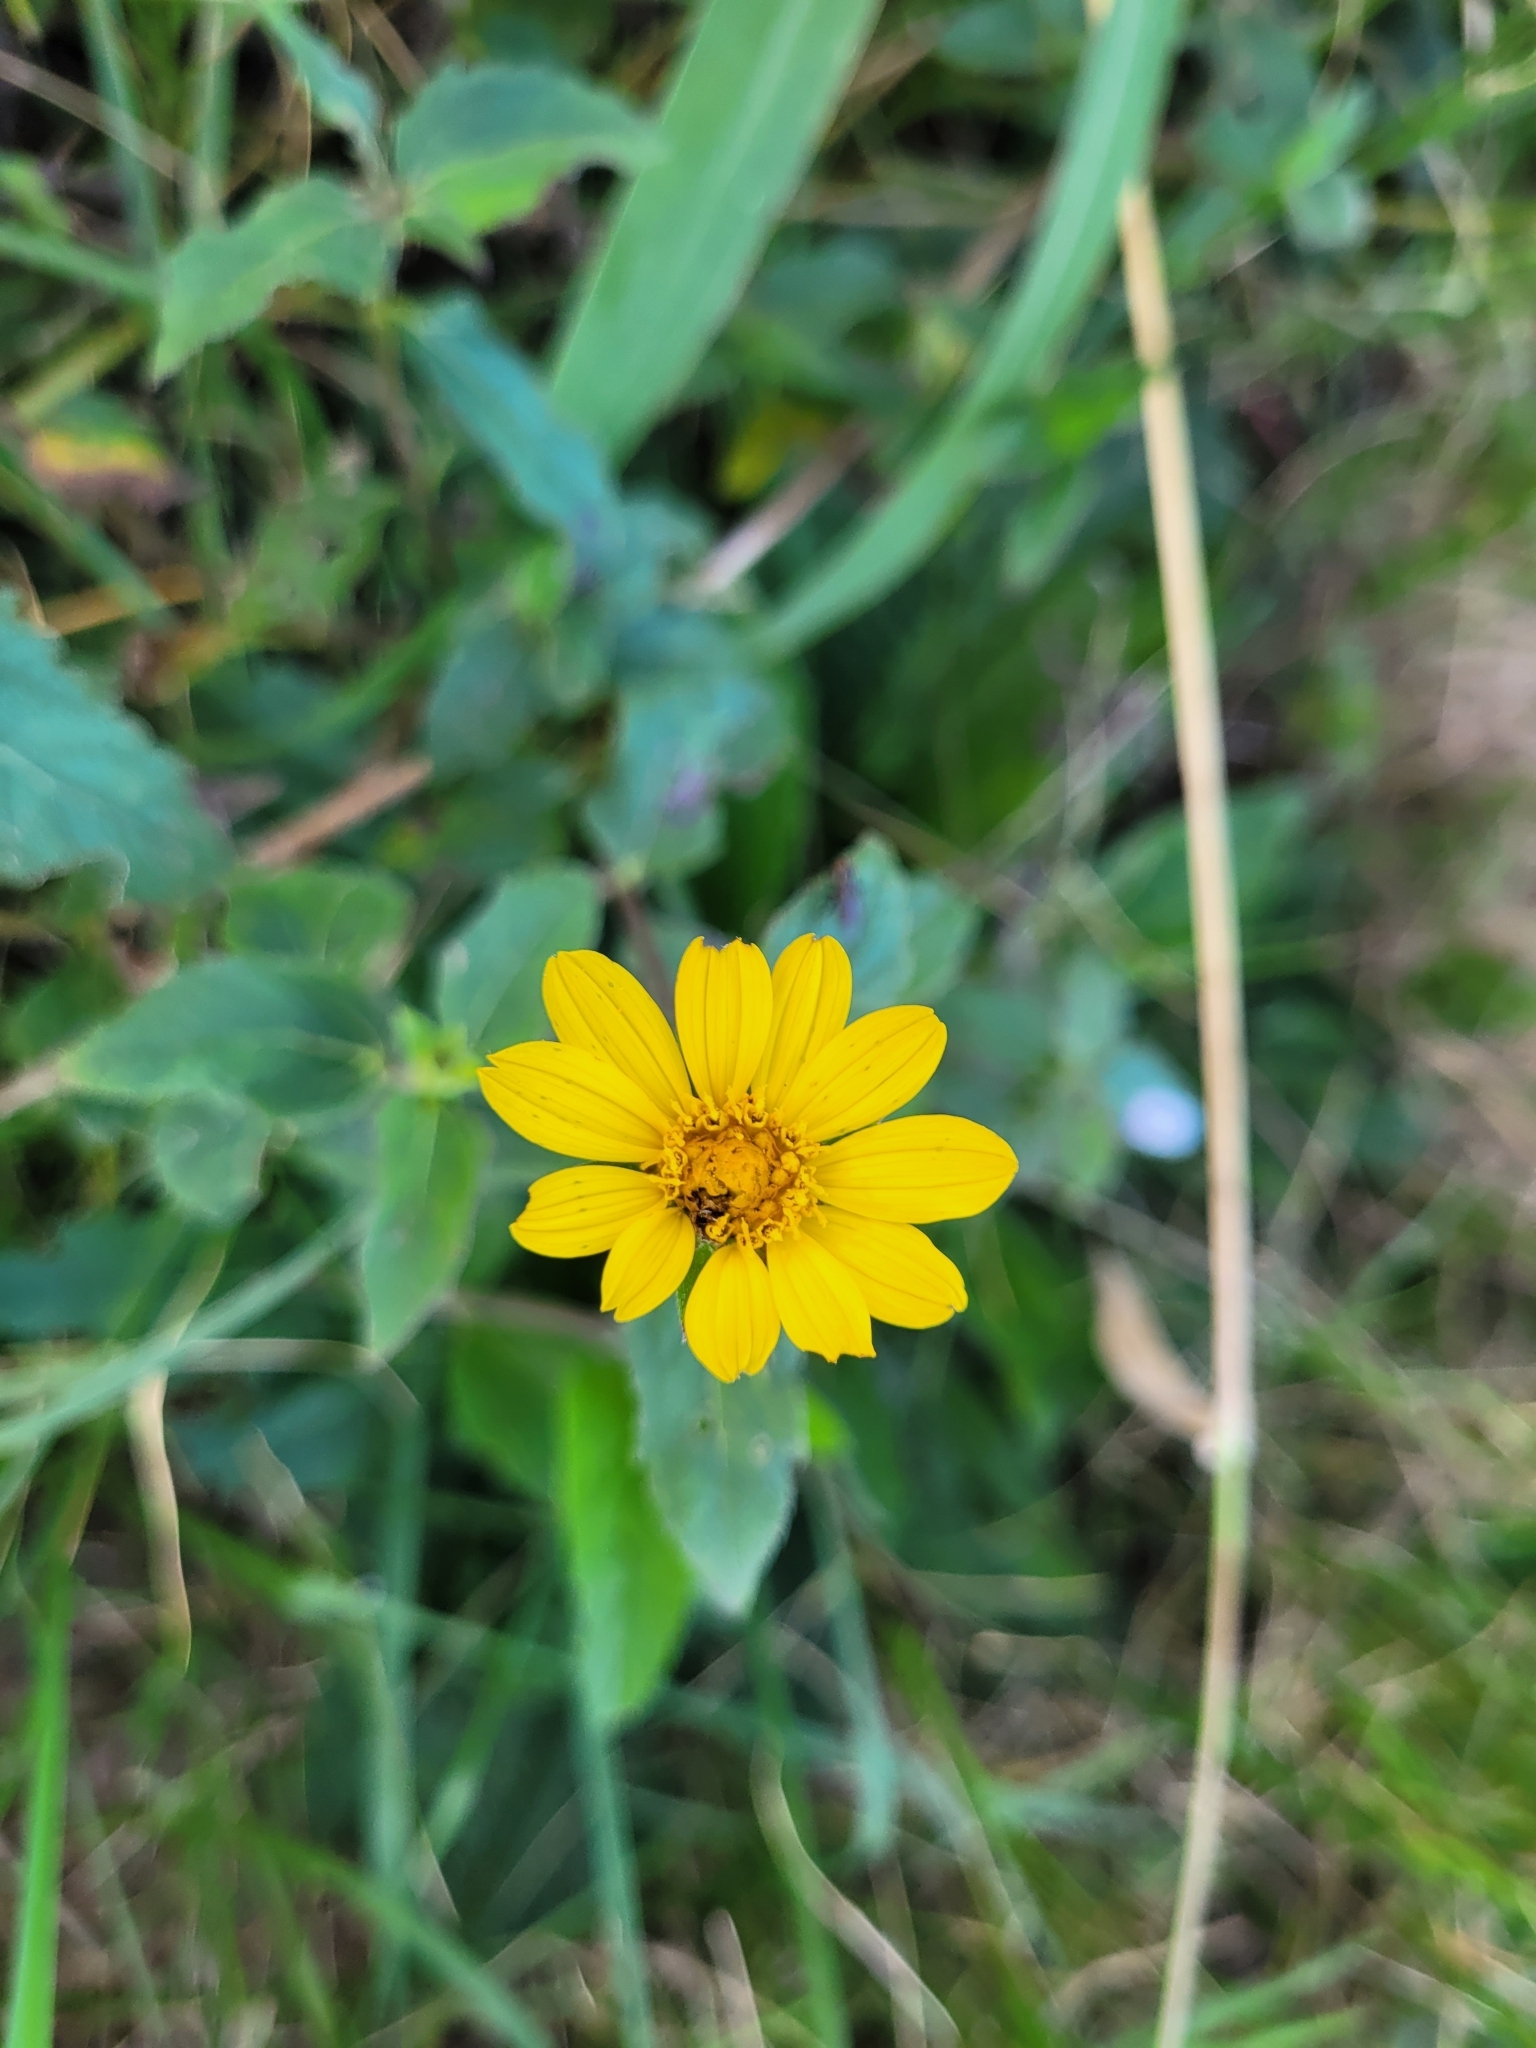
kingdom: Plantae
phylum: Tracheophyta
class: Magnoliopsida
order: Asterales
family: Asteraceae
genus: Wedelia
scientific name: Wedelia silphioides
